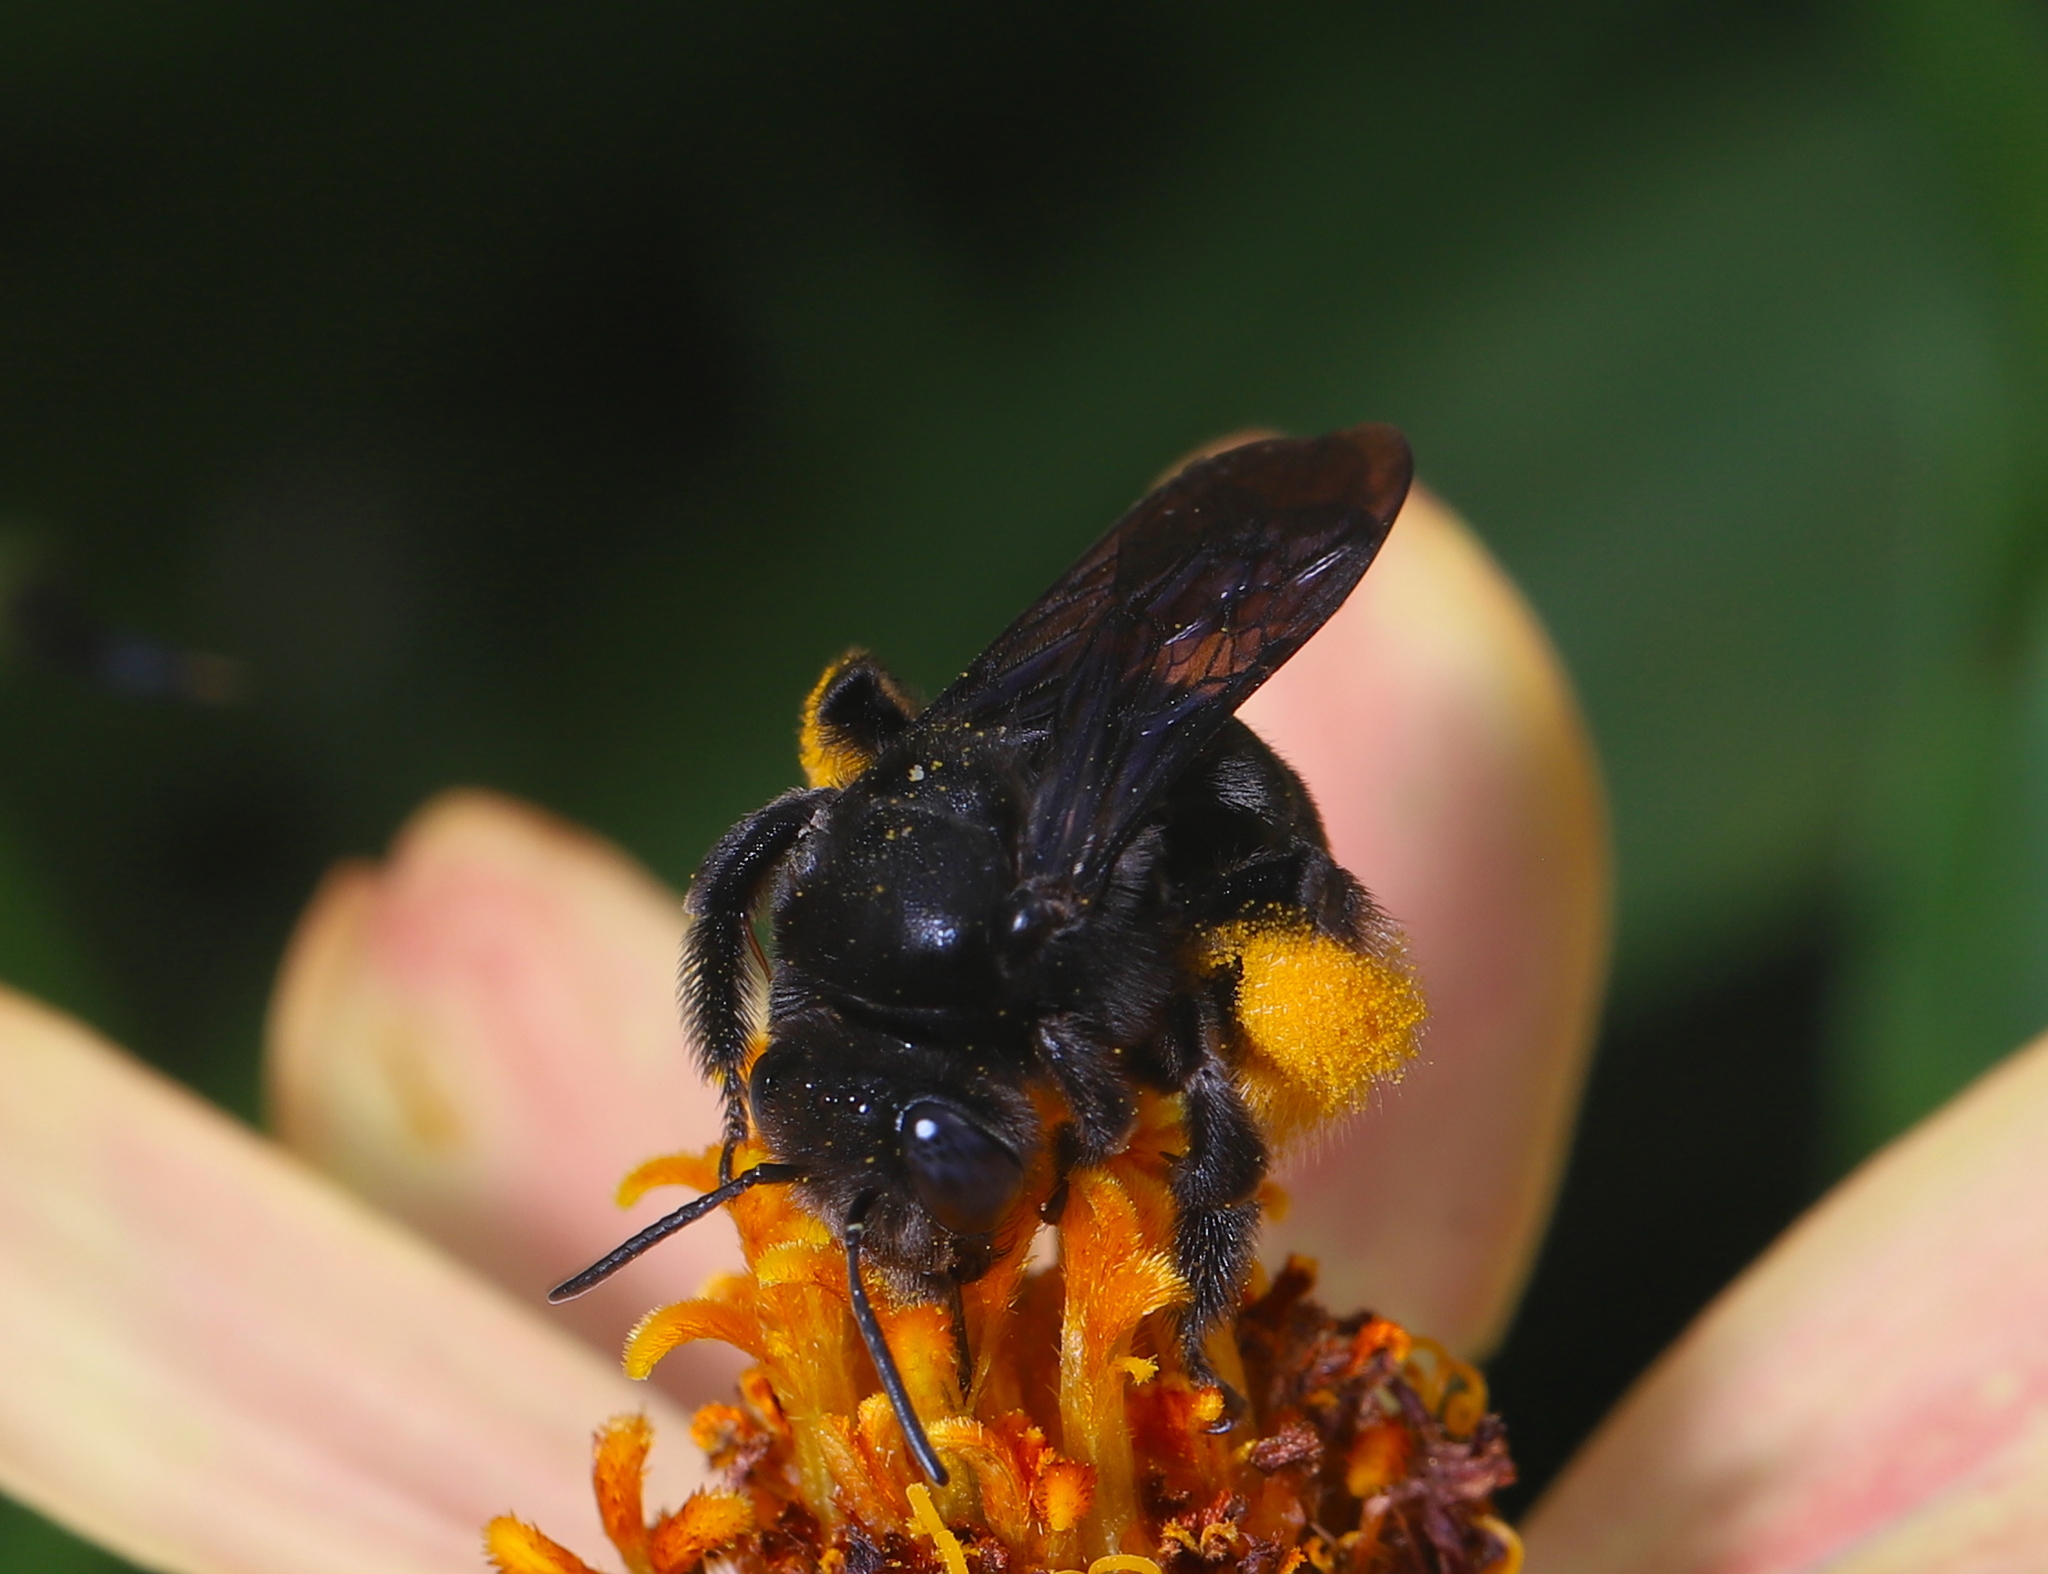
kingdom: Animalia
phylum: Arthropoda
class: Insecta
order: Hymenoptera
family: Apidae
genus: Melissodes
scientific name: Melissodes bimaculatus
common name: Two-spotted long-horned bee
